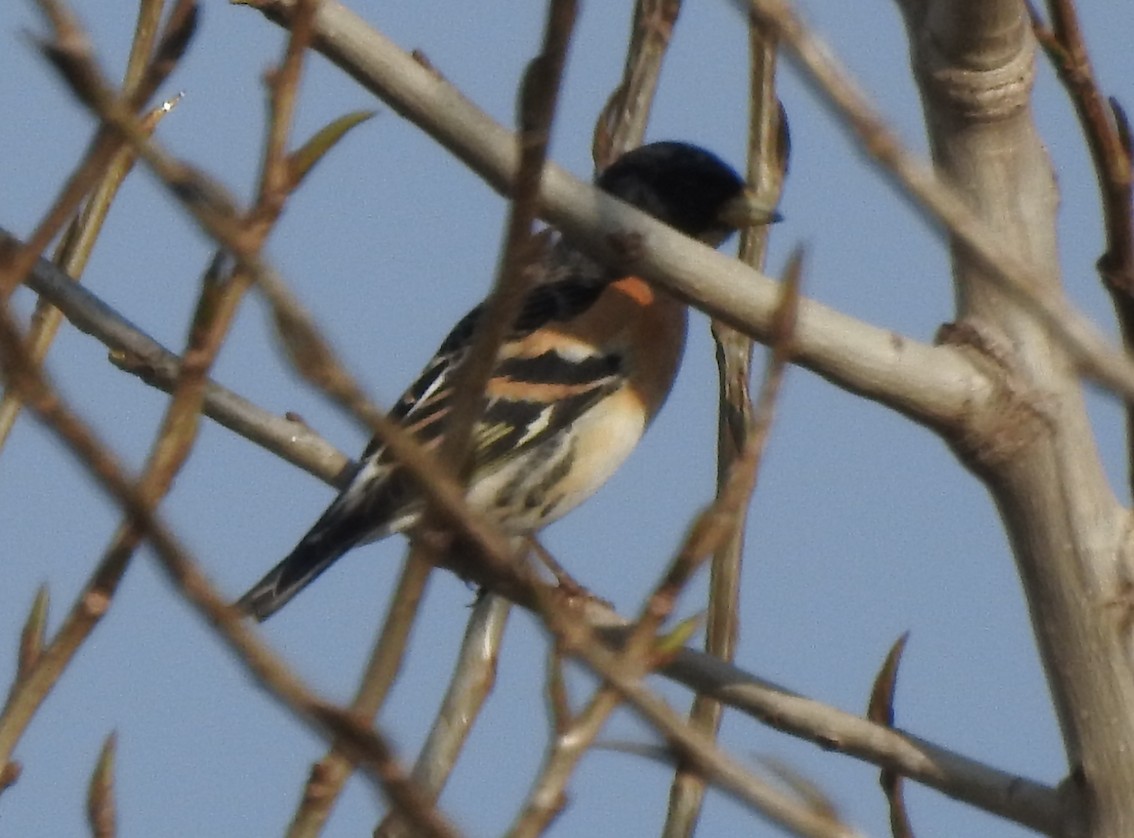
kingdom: Animalia
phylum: Chordata
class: Aves
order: Passeriformes
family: Fringillidae
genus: Fringilla
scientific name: Fringilla montifringilla
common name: Brambling
